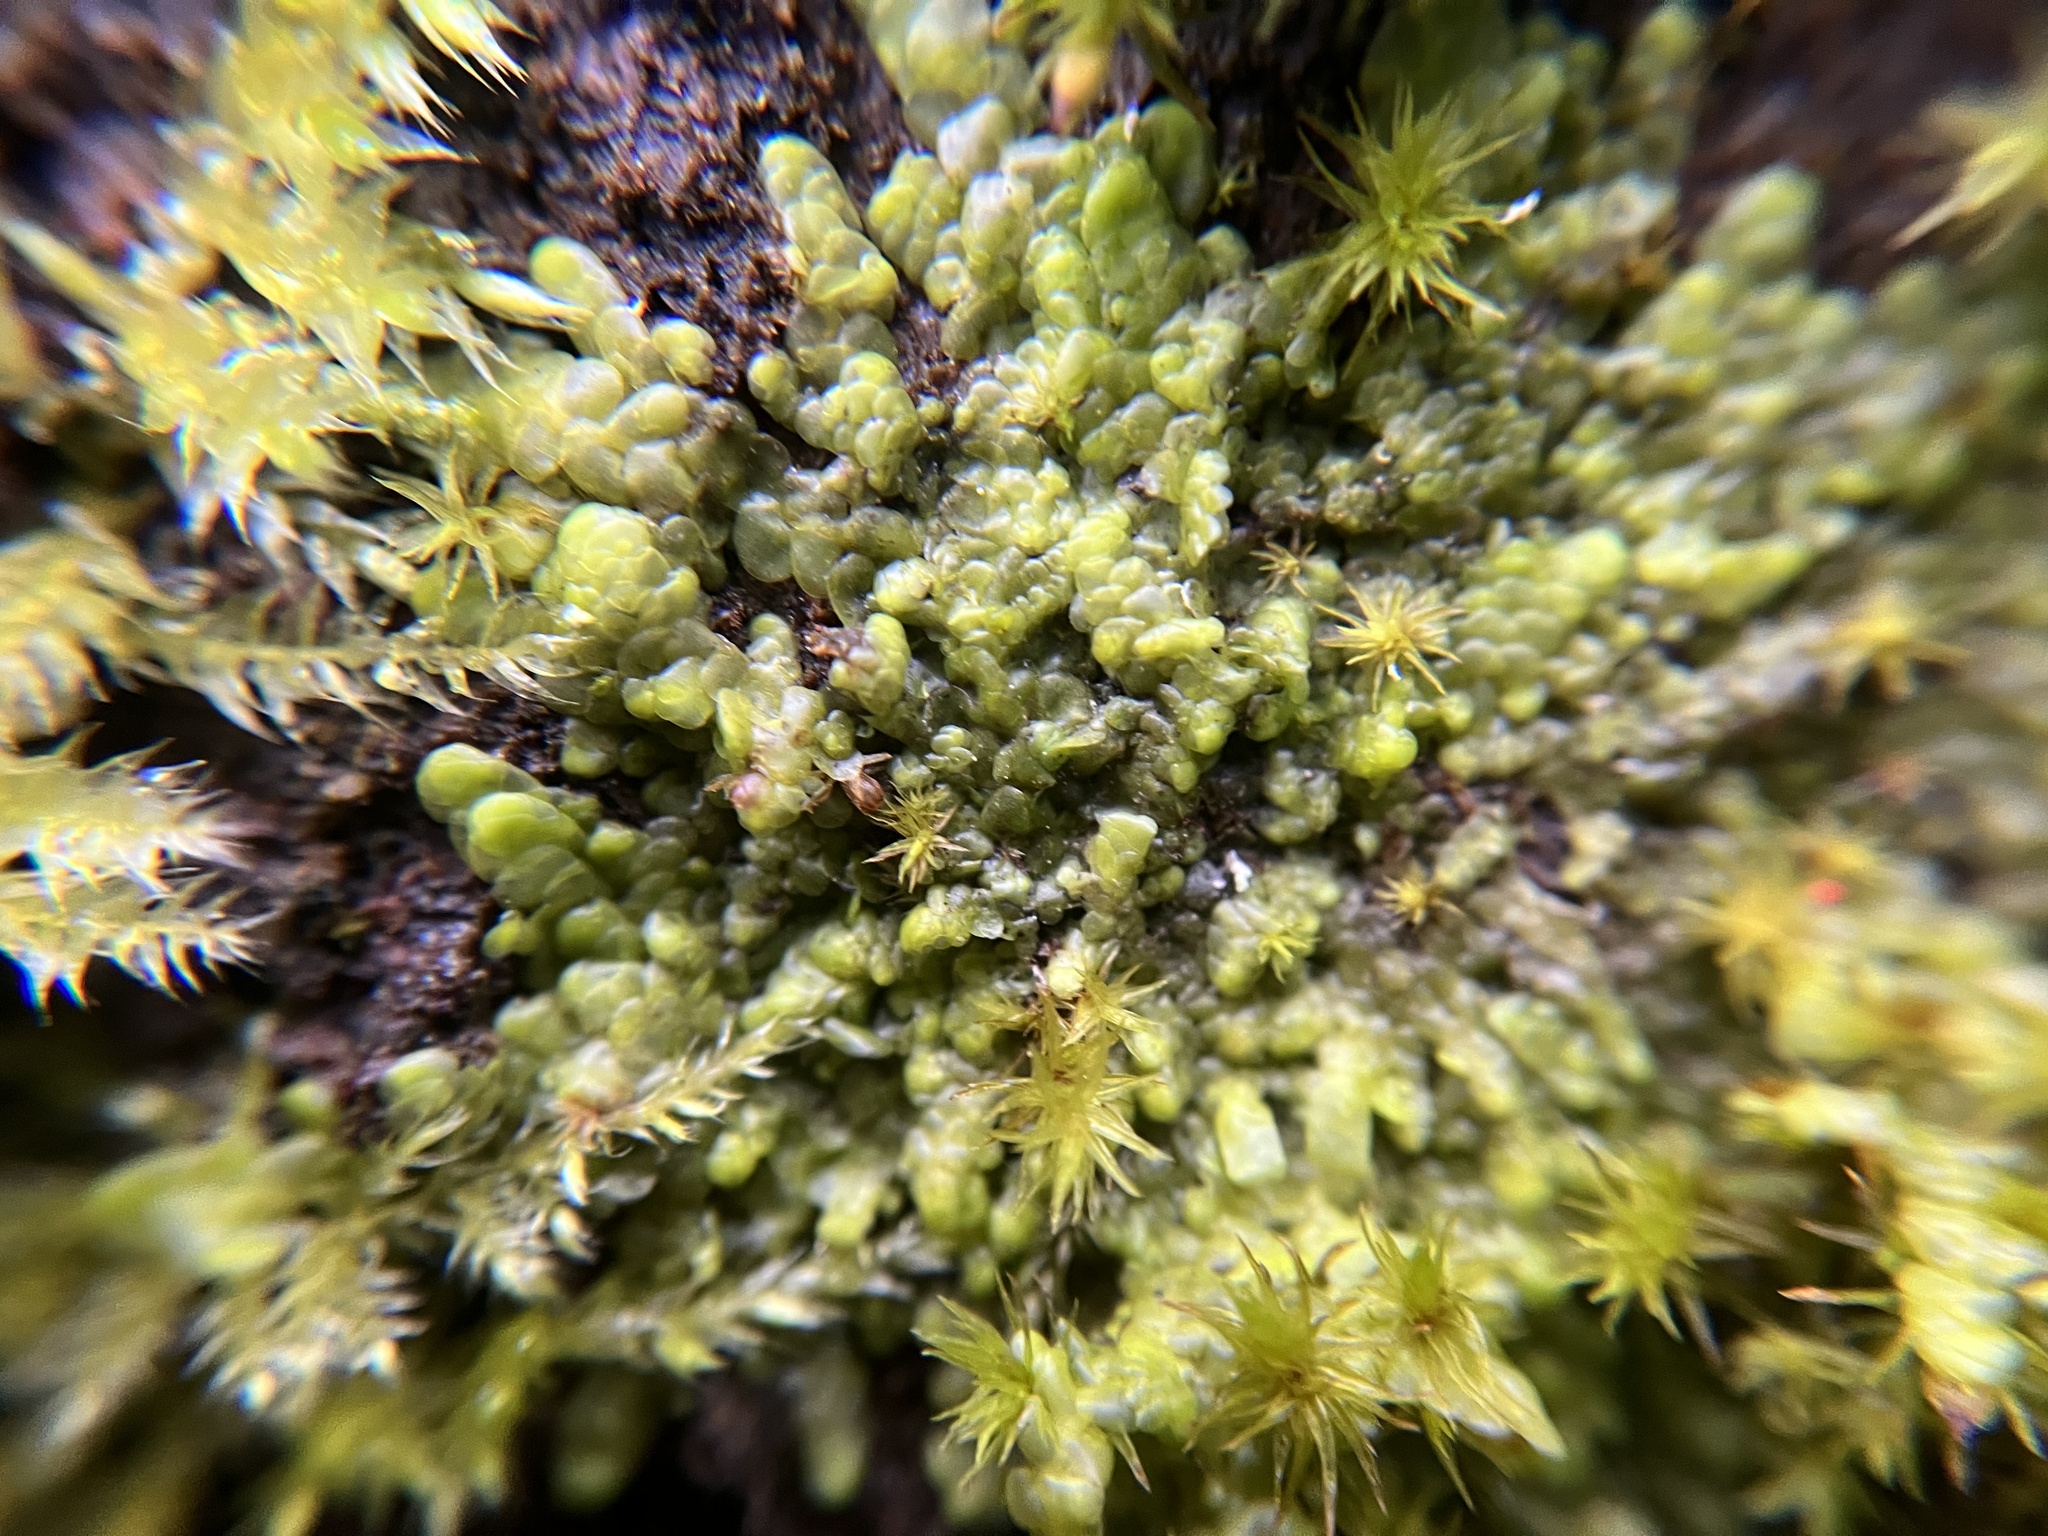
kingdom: Plantae
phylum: Marchantiophyta
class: Jungermanniopsida
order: Porellales
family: Radulaceae
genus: Radula
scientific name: Radula complanata
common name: Flat-leaved scalewort
